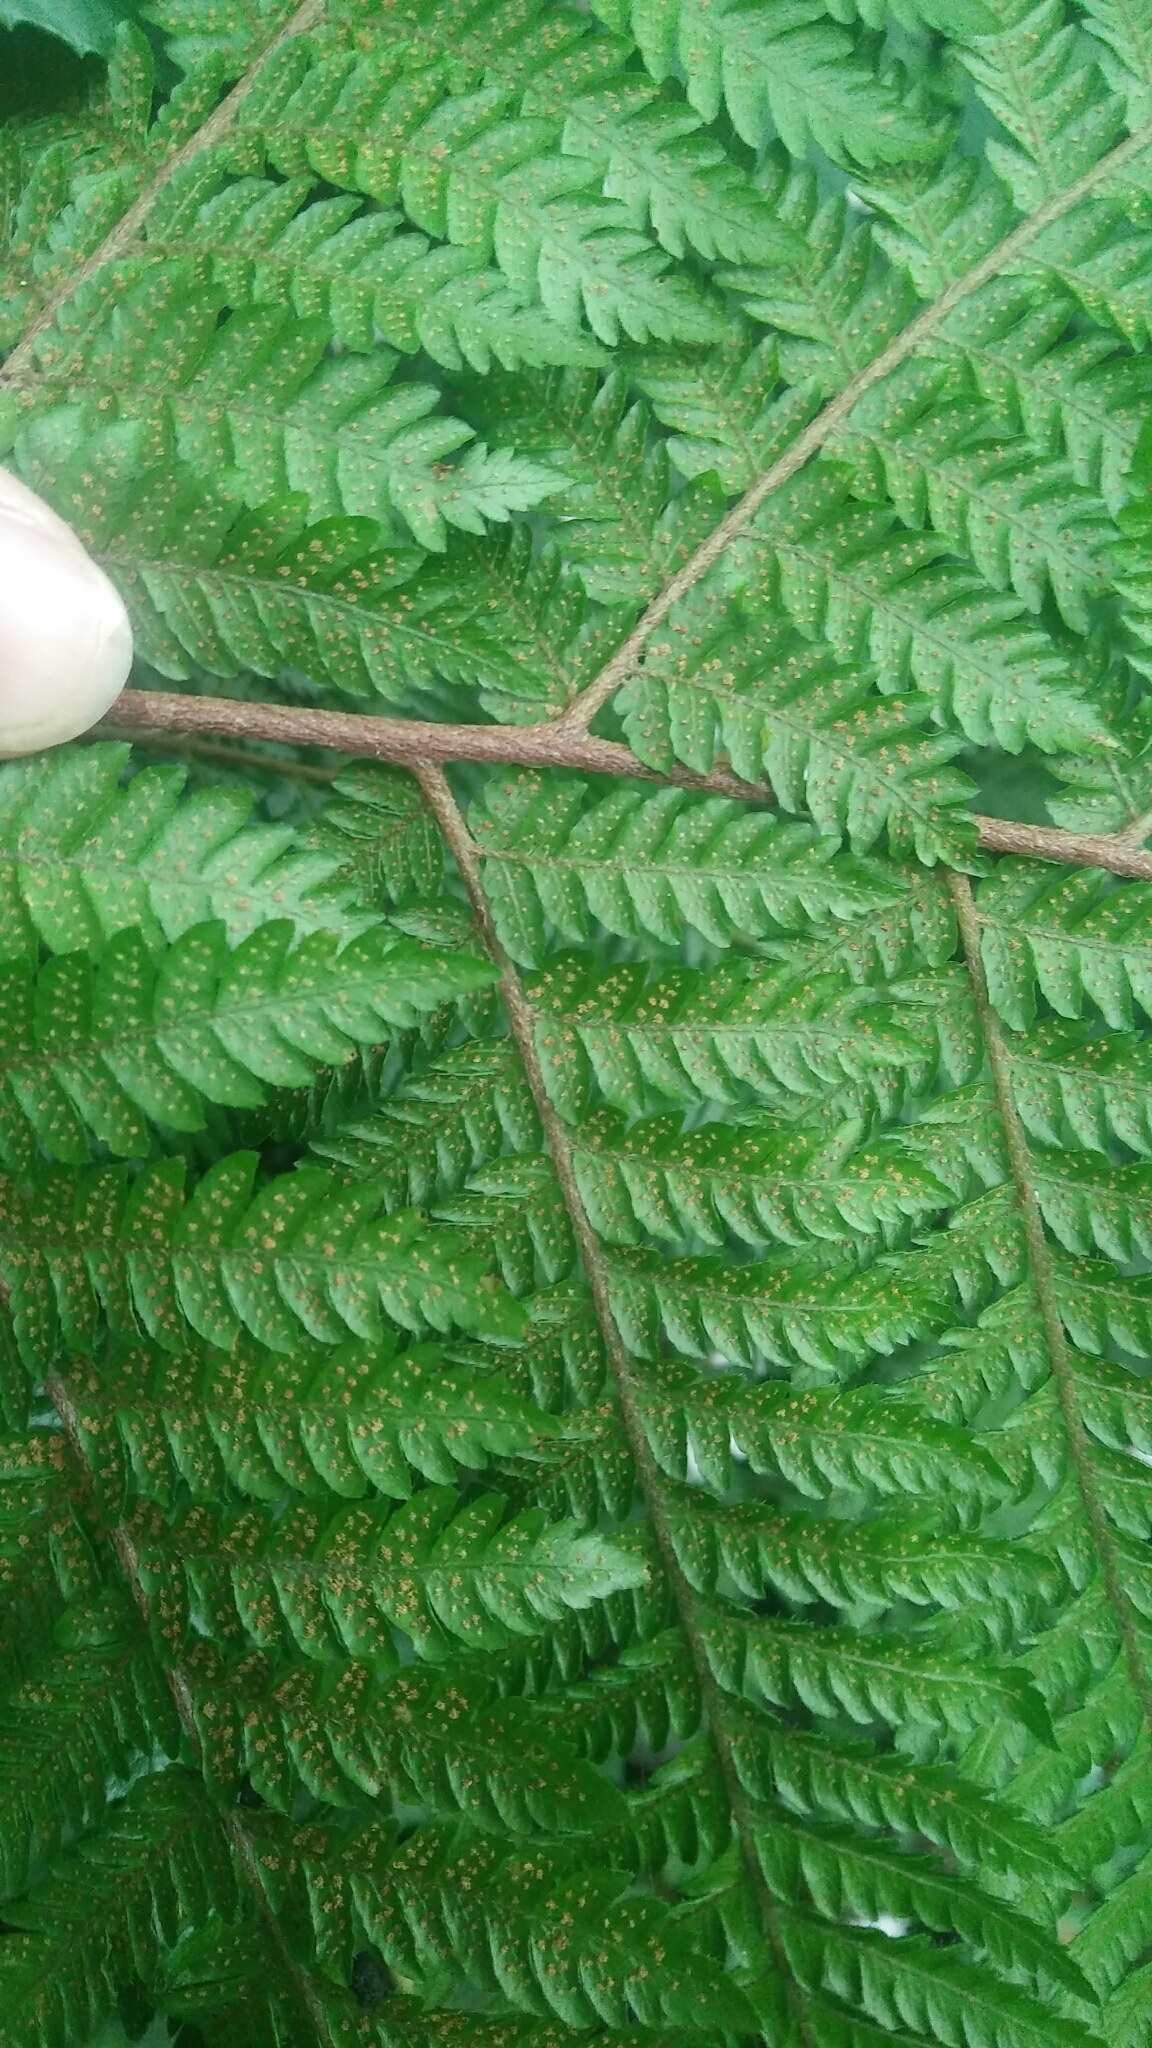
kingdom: Plantae
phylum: Tracheophyta
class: Polypodiopsida
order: Polypodiales
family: Dryopteridaceae
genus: Ctenitis
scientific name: Ctenitis subglandulosa
